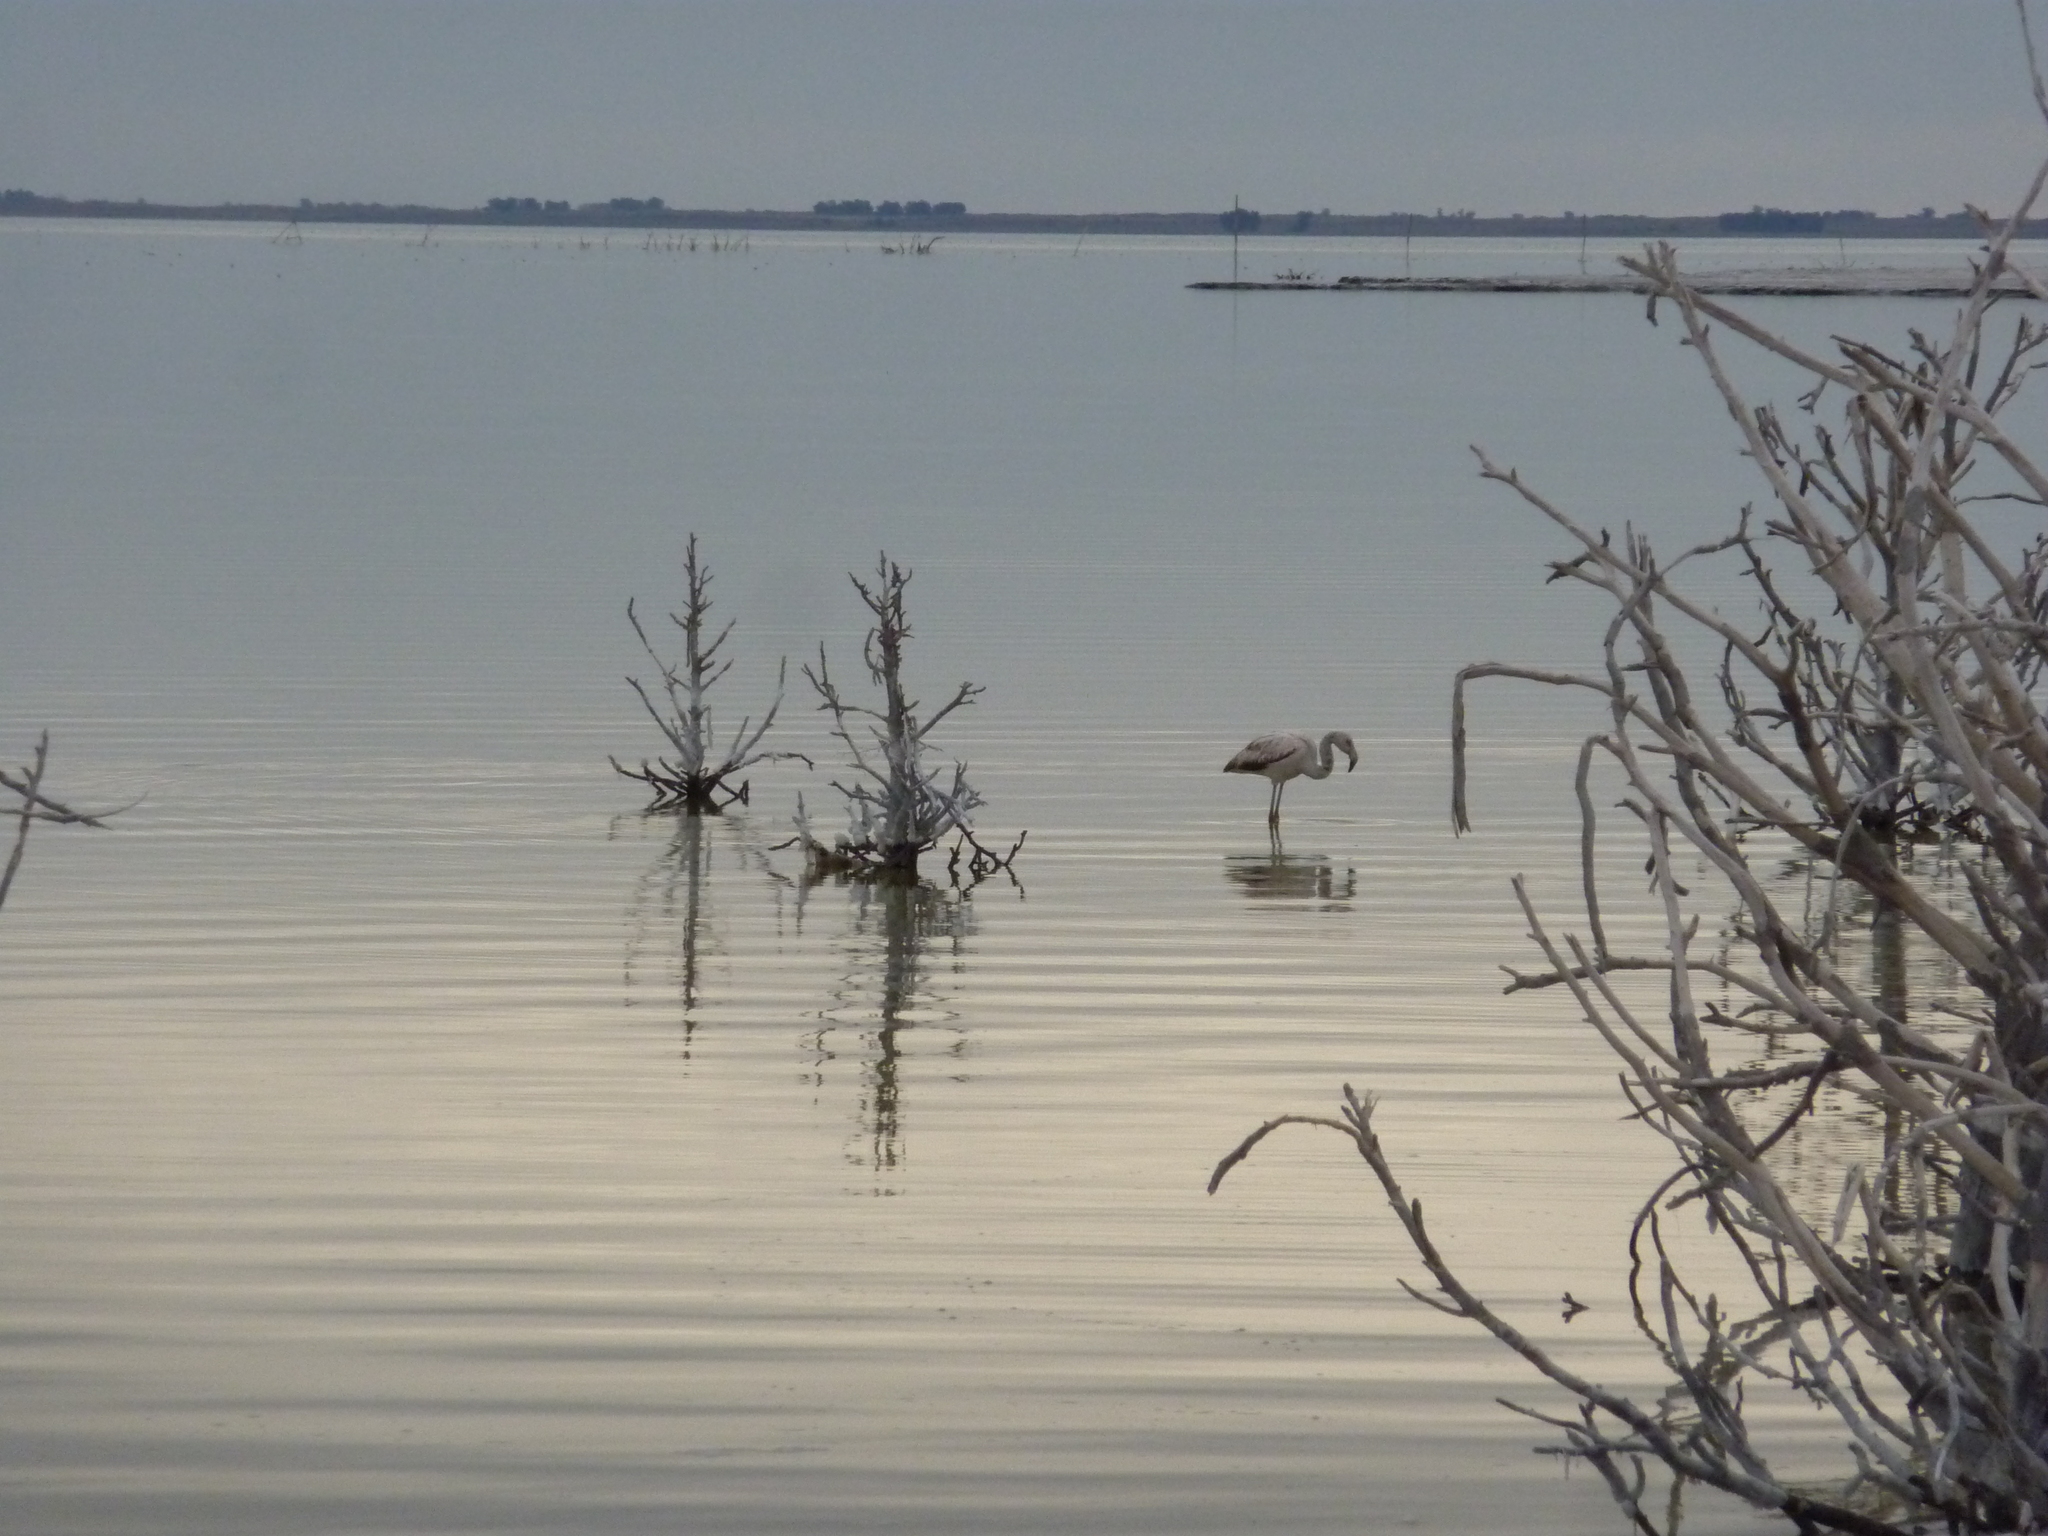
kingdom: Animalia
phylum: Chordata
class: Aves
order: Phoenicopteriformes
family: Phoenicopteridae
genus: Phoenicopterus
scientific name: Phoenicopterus chilensis
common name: Chilean flamingo
